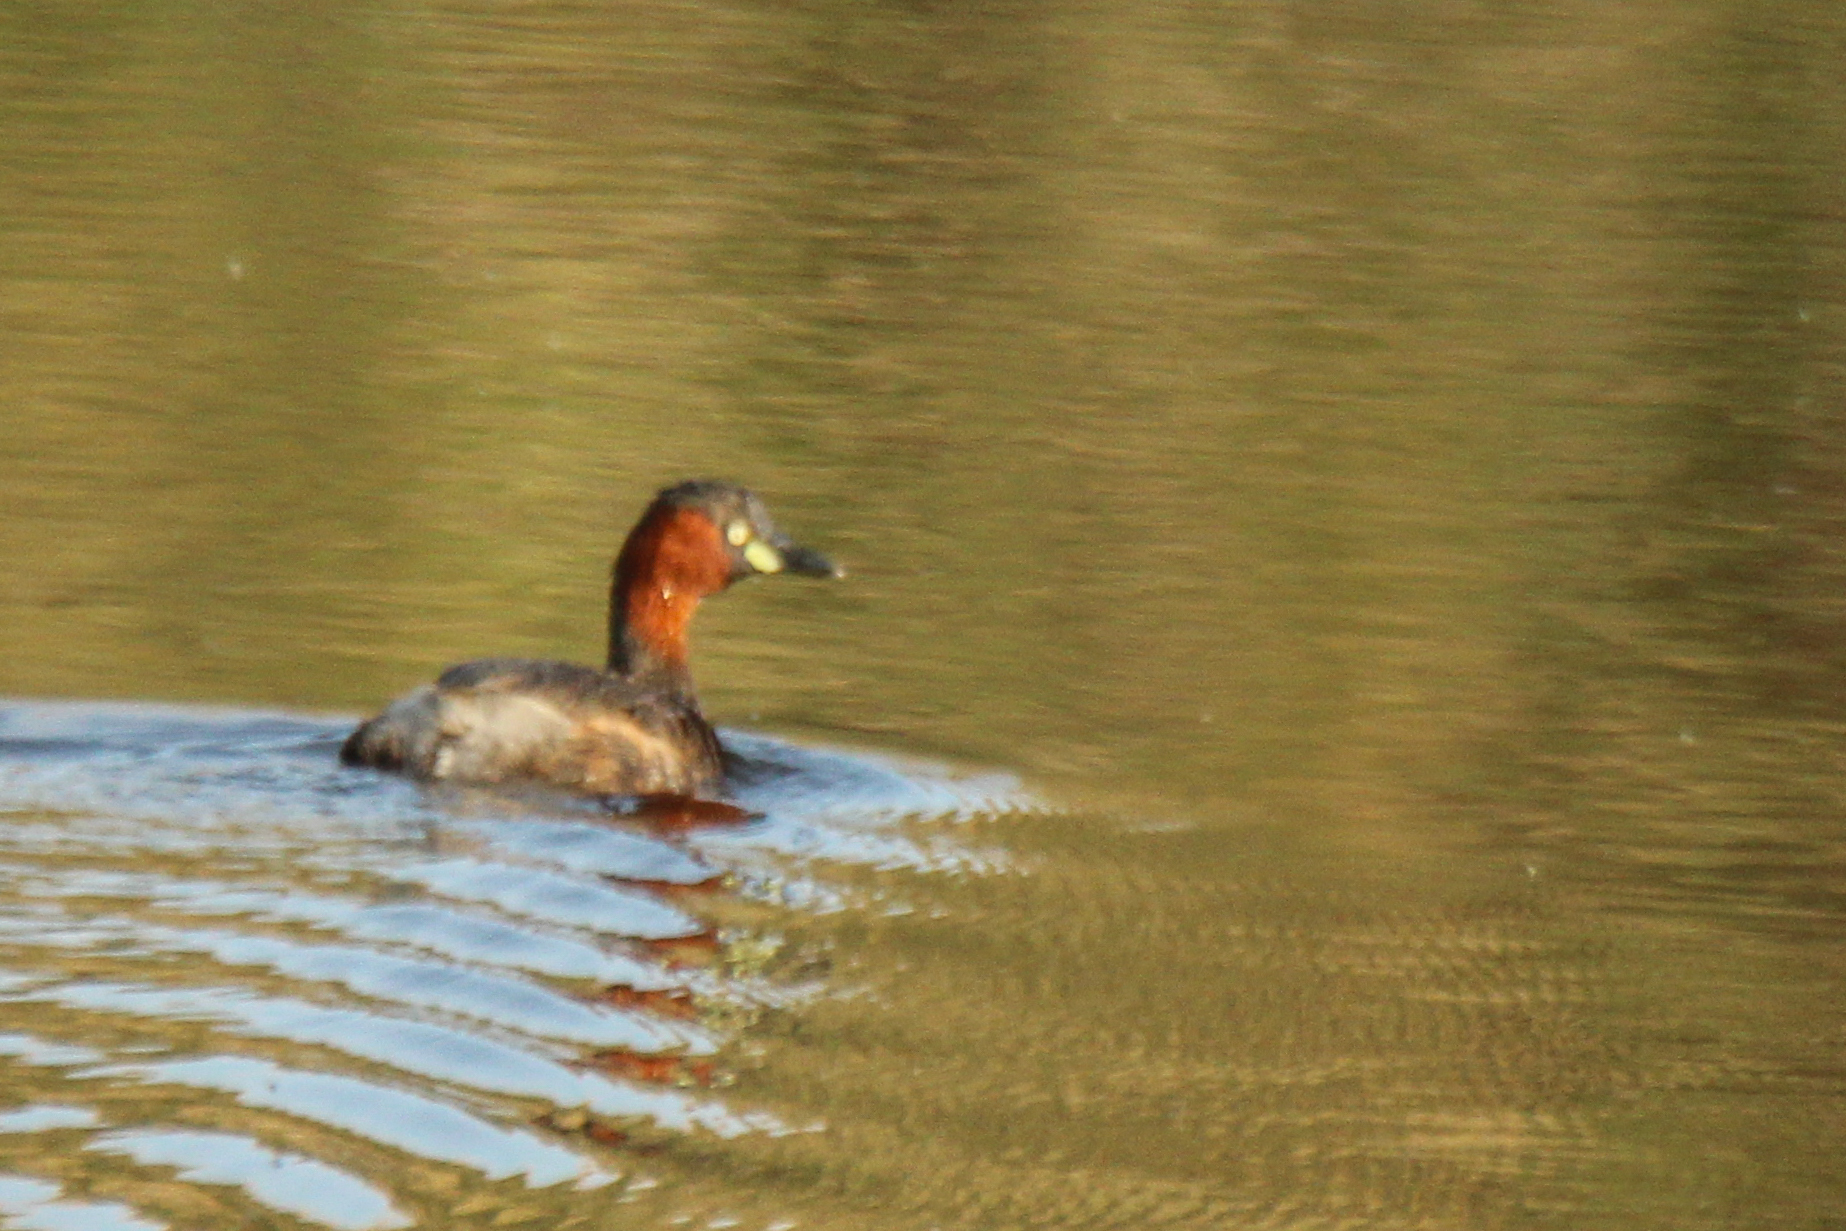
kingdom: Animalia
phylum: Chordata
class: Aves
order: Podicipediformes
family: Podicipedidae
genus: Tachybaptus
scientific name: Tachybaptus ruficollis
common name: Little grebe
